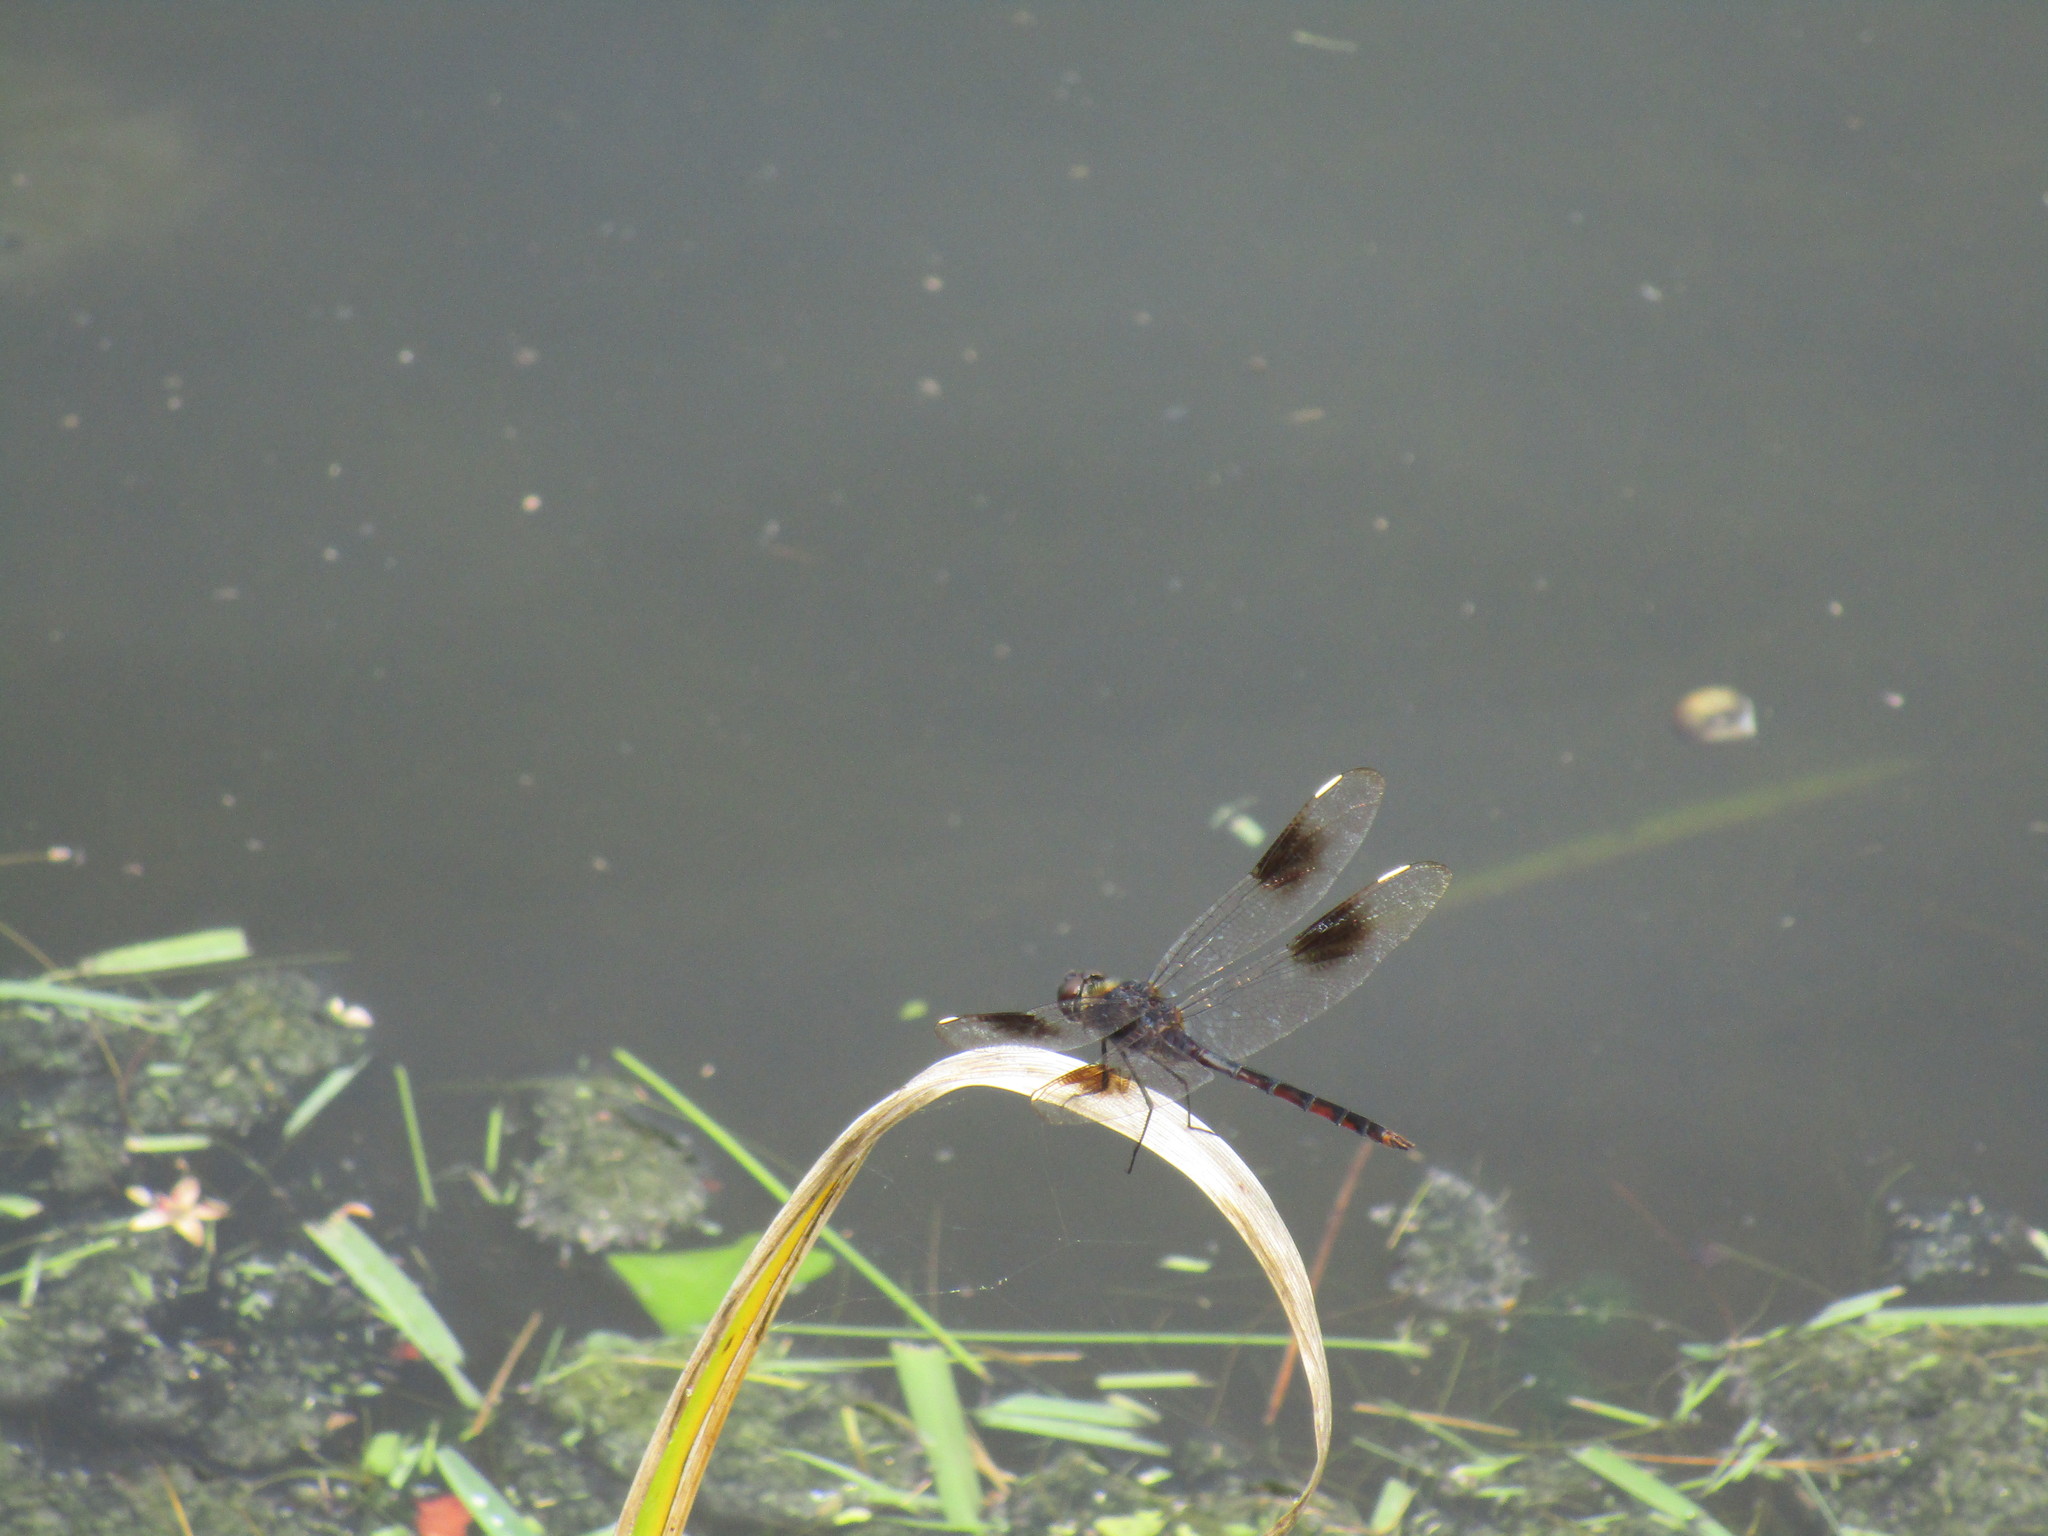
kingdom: Animalia
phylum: Arthropoda
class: Insecta
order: Odonata
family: Libellulidae
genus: Brachymesia
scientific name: Brachymesia gravida
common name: Four-spotted pennant
